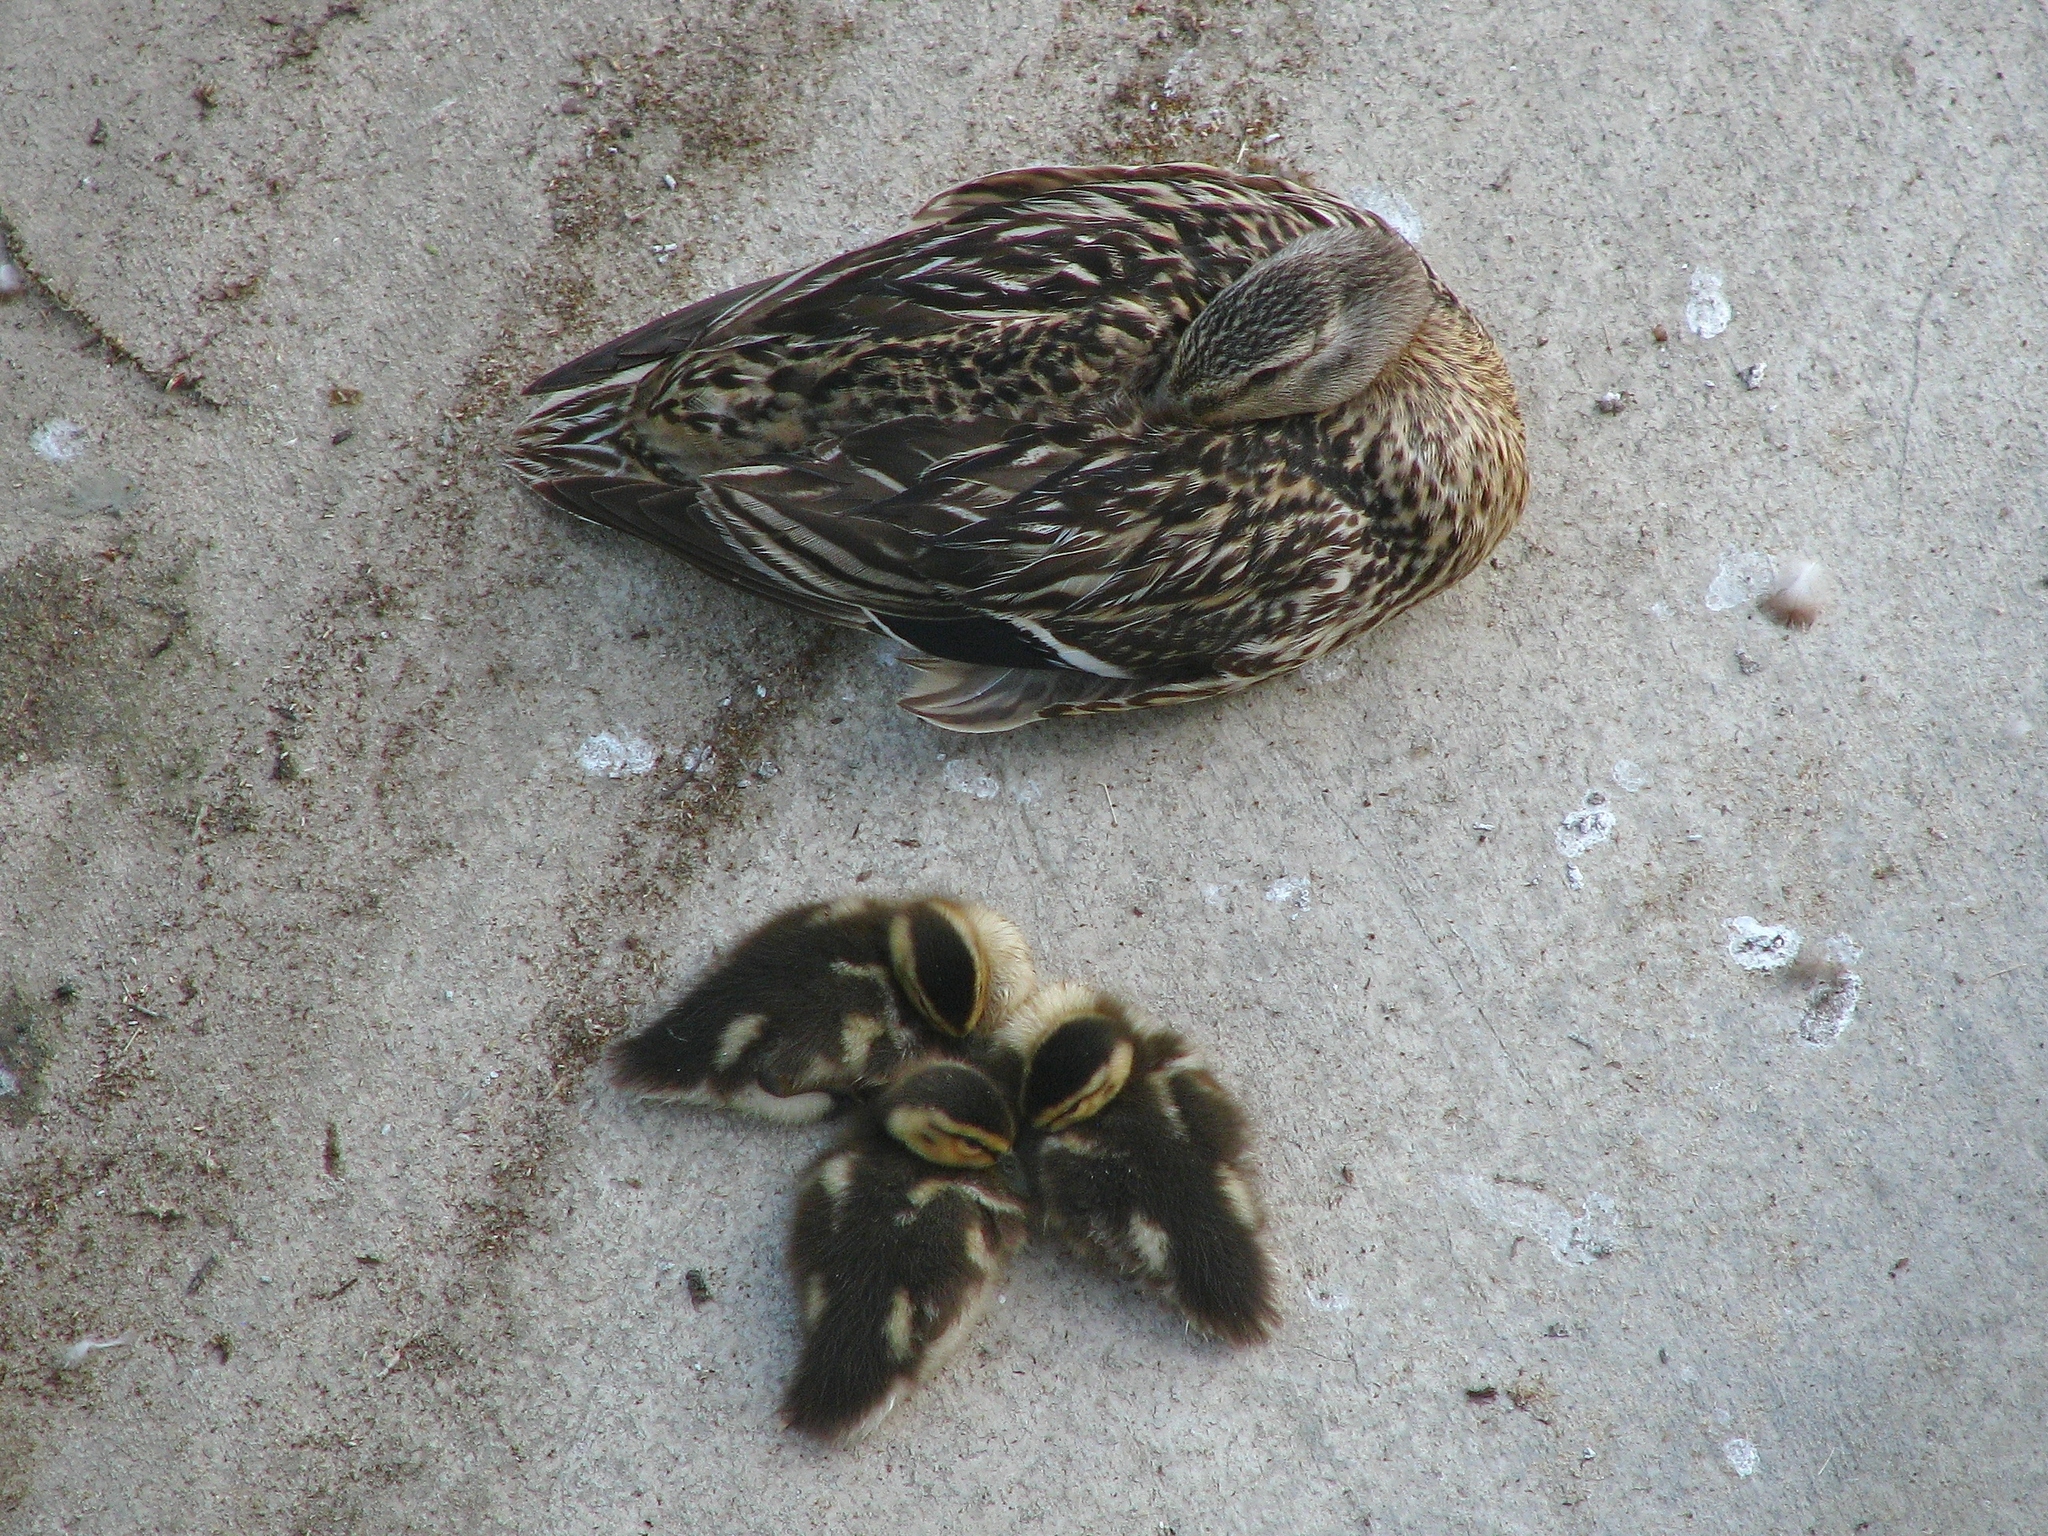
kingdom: Animalia
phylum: Chordata
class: Aves
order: Anseriformes
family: Anatidae
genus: Anas
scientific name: Anas platyrhynchos
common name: Mallard
